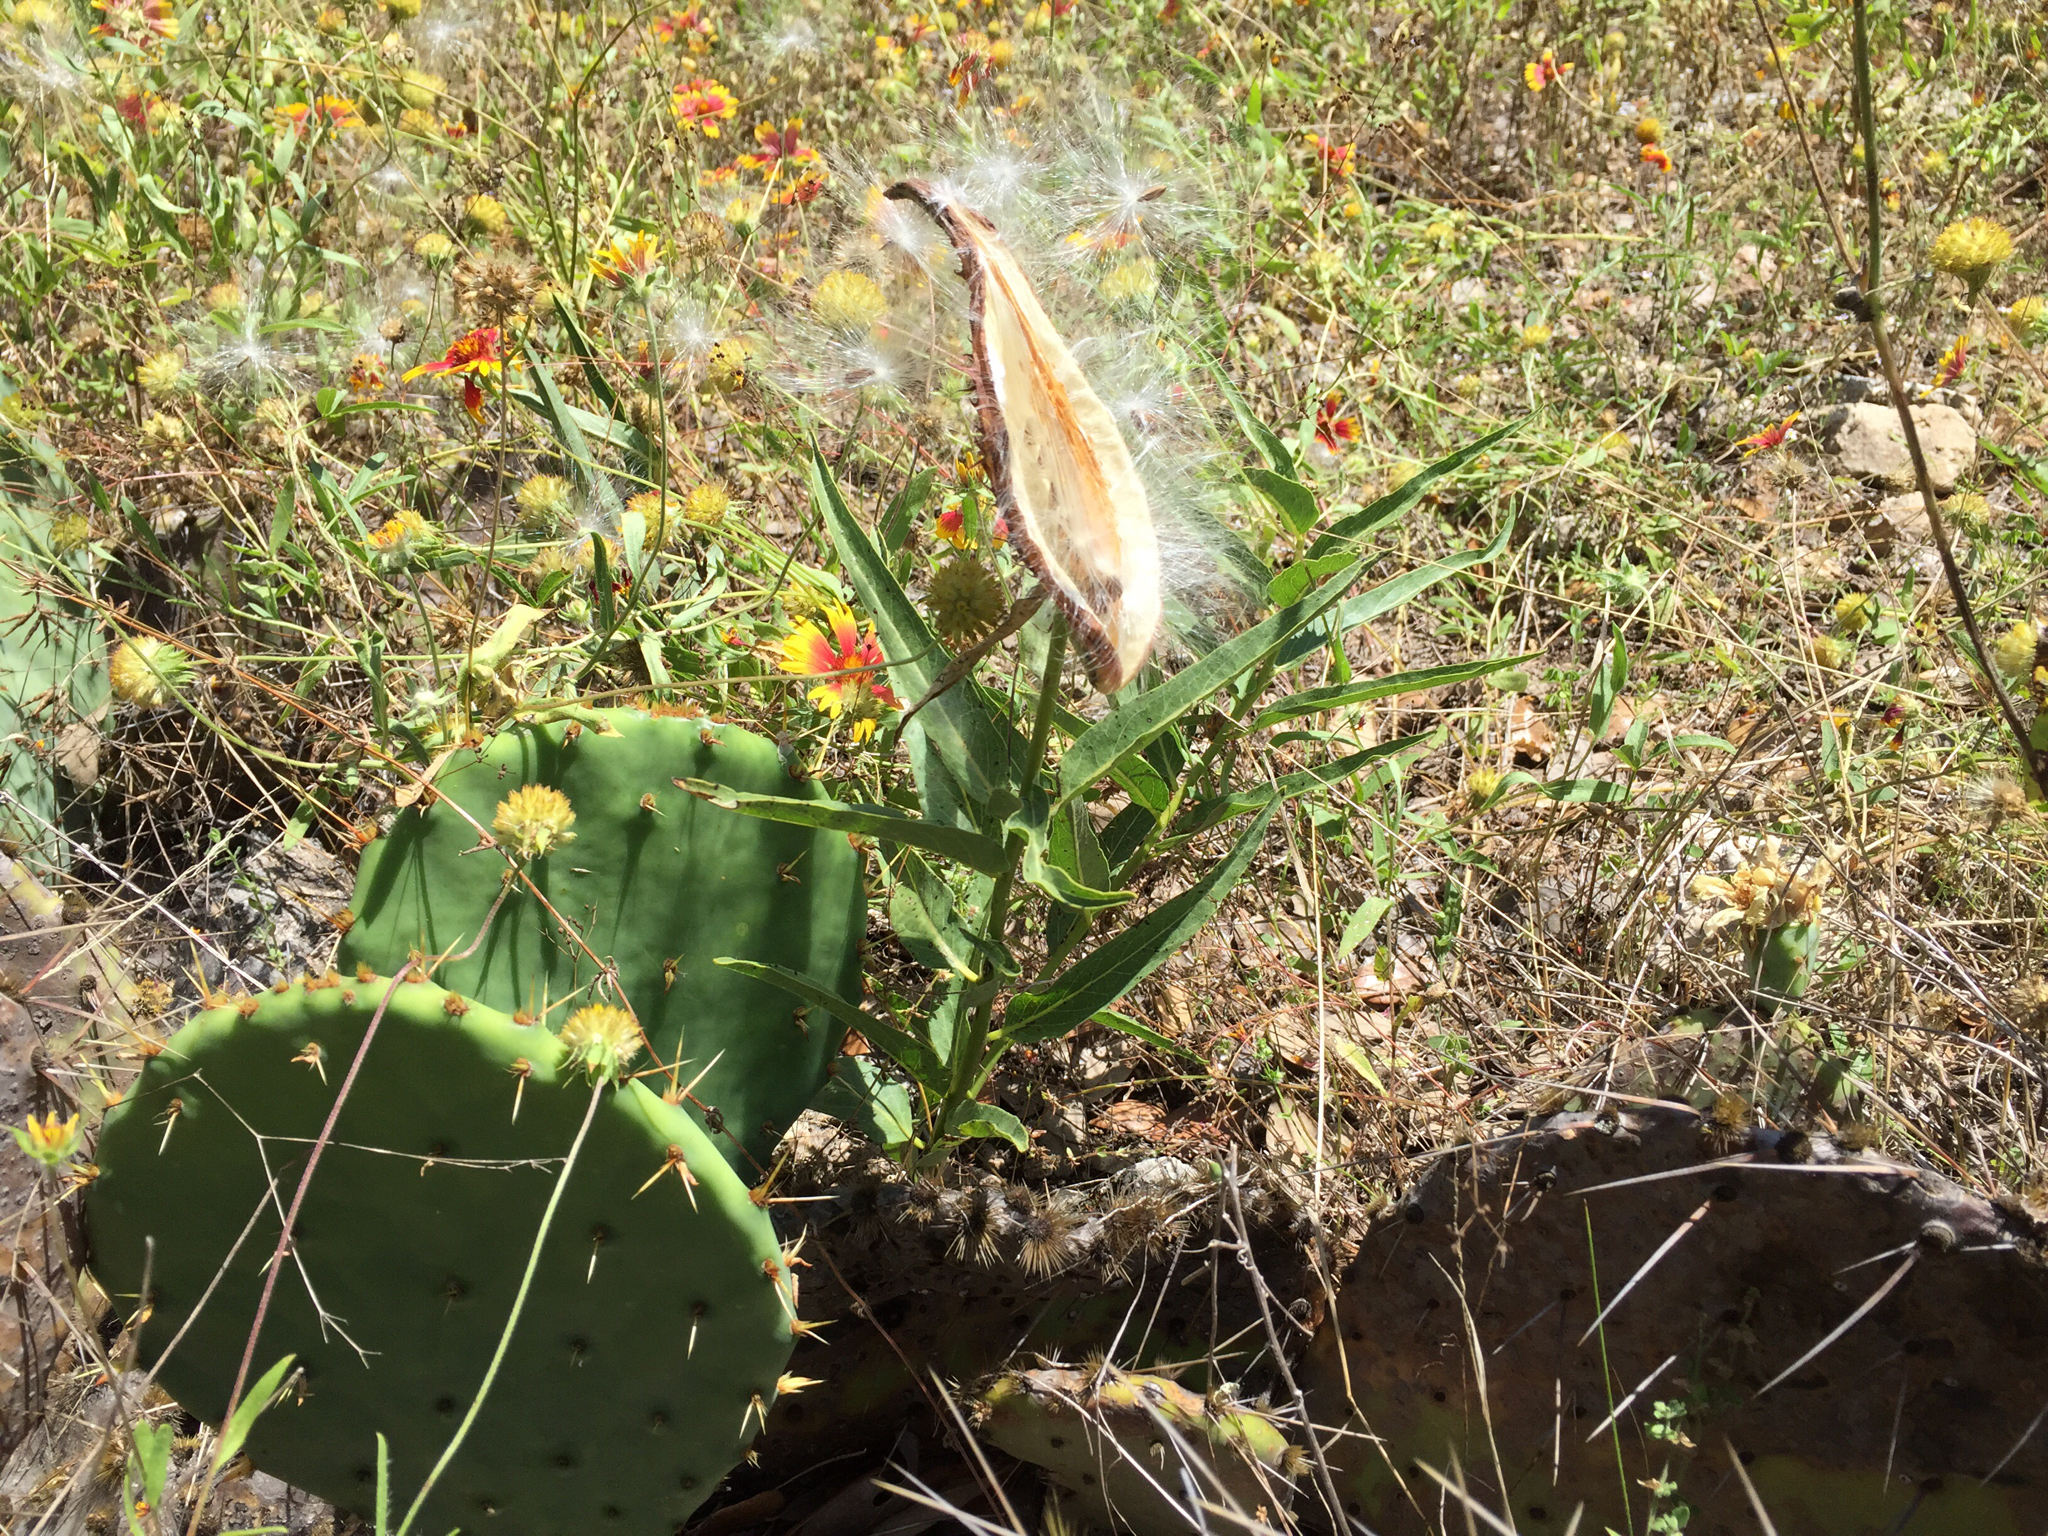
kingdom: Plantae
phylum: Tracheophyta
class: Magnoliopsida
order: Gentianales
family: Apocynaceae
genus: Asclepias
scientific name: Asclepias asperula
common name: Antelope horns
